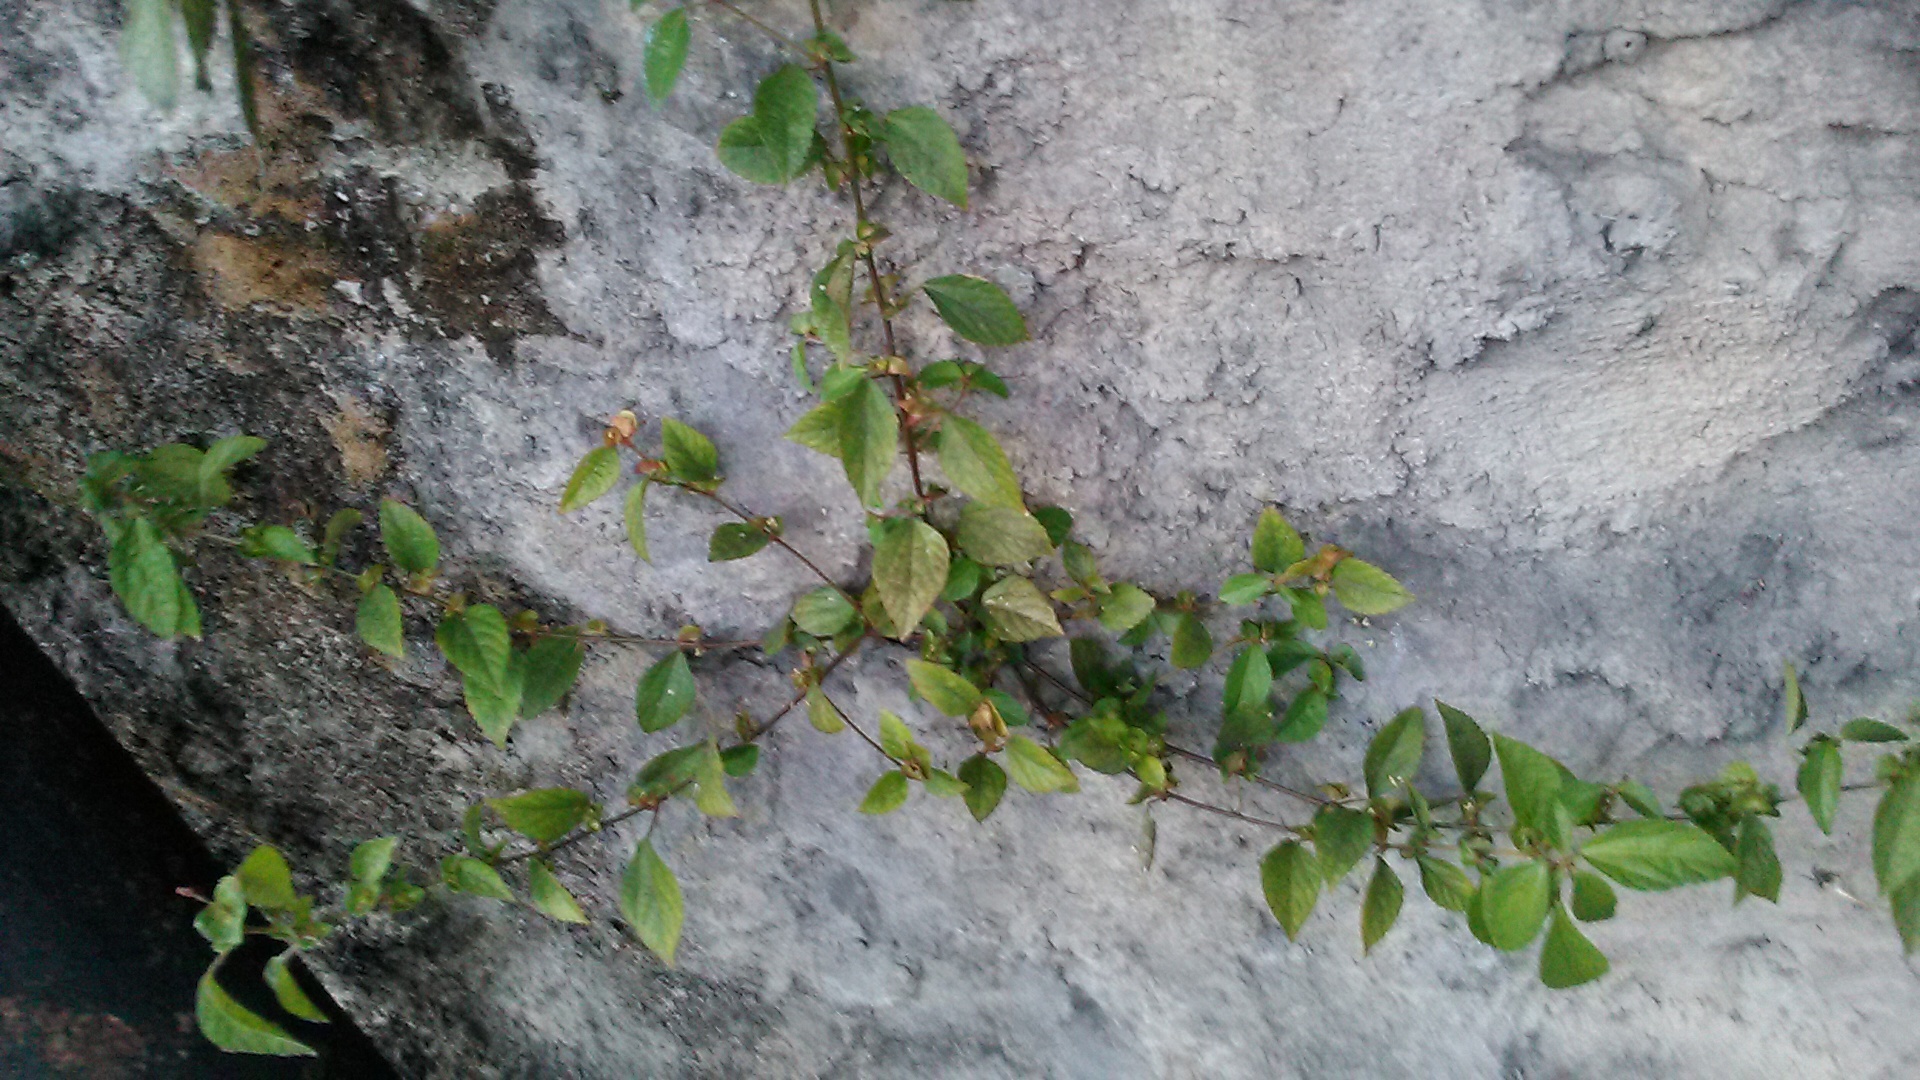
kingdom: Plantae
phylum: Tracheophyta
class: Magnoliopsida
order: Malpighiales
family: Euphorbiaceae
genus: Acalypha
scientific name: Acalypha australis
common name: Asian copperleaf
